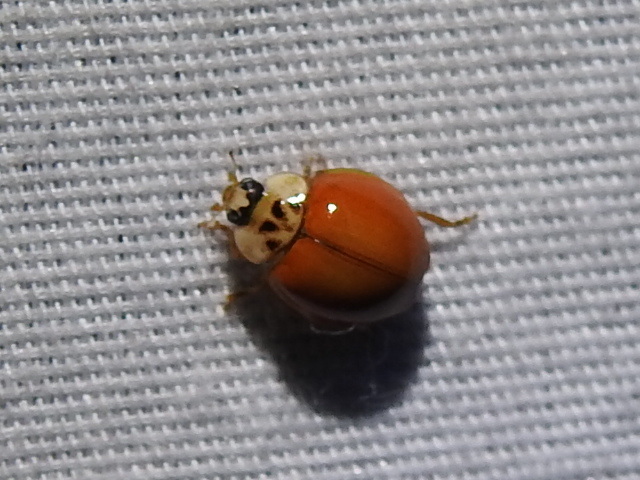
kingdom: Animalia
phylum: Arthropoda
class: Insecta
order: Coleoptera
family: Coccinellidae
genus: Harmonia
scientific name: Harmonia axyridis
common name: Harlequin ladybird
